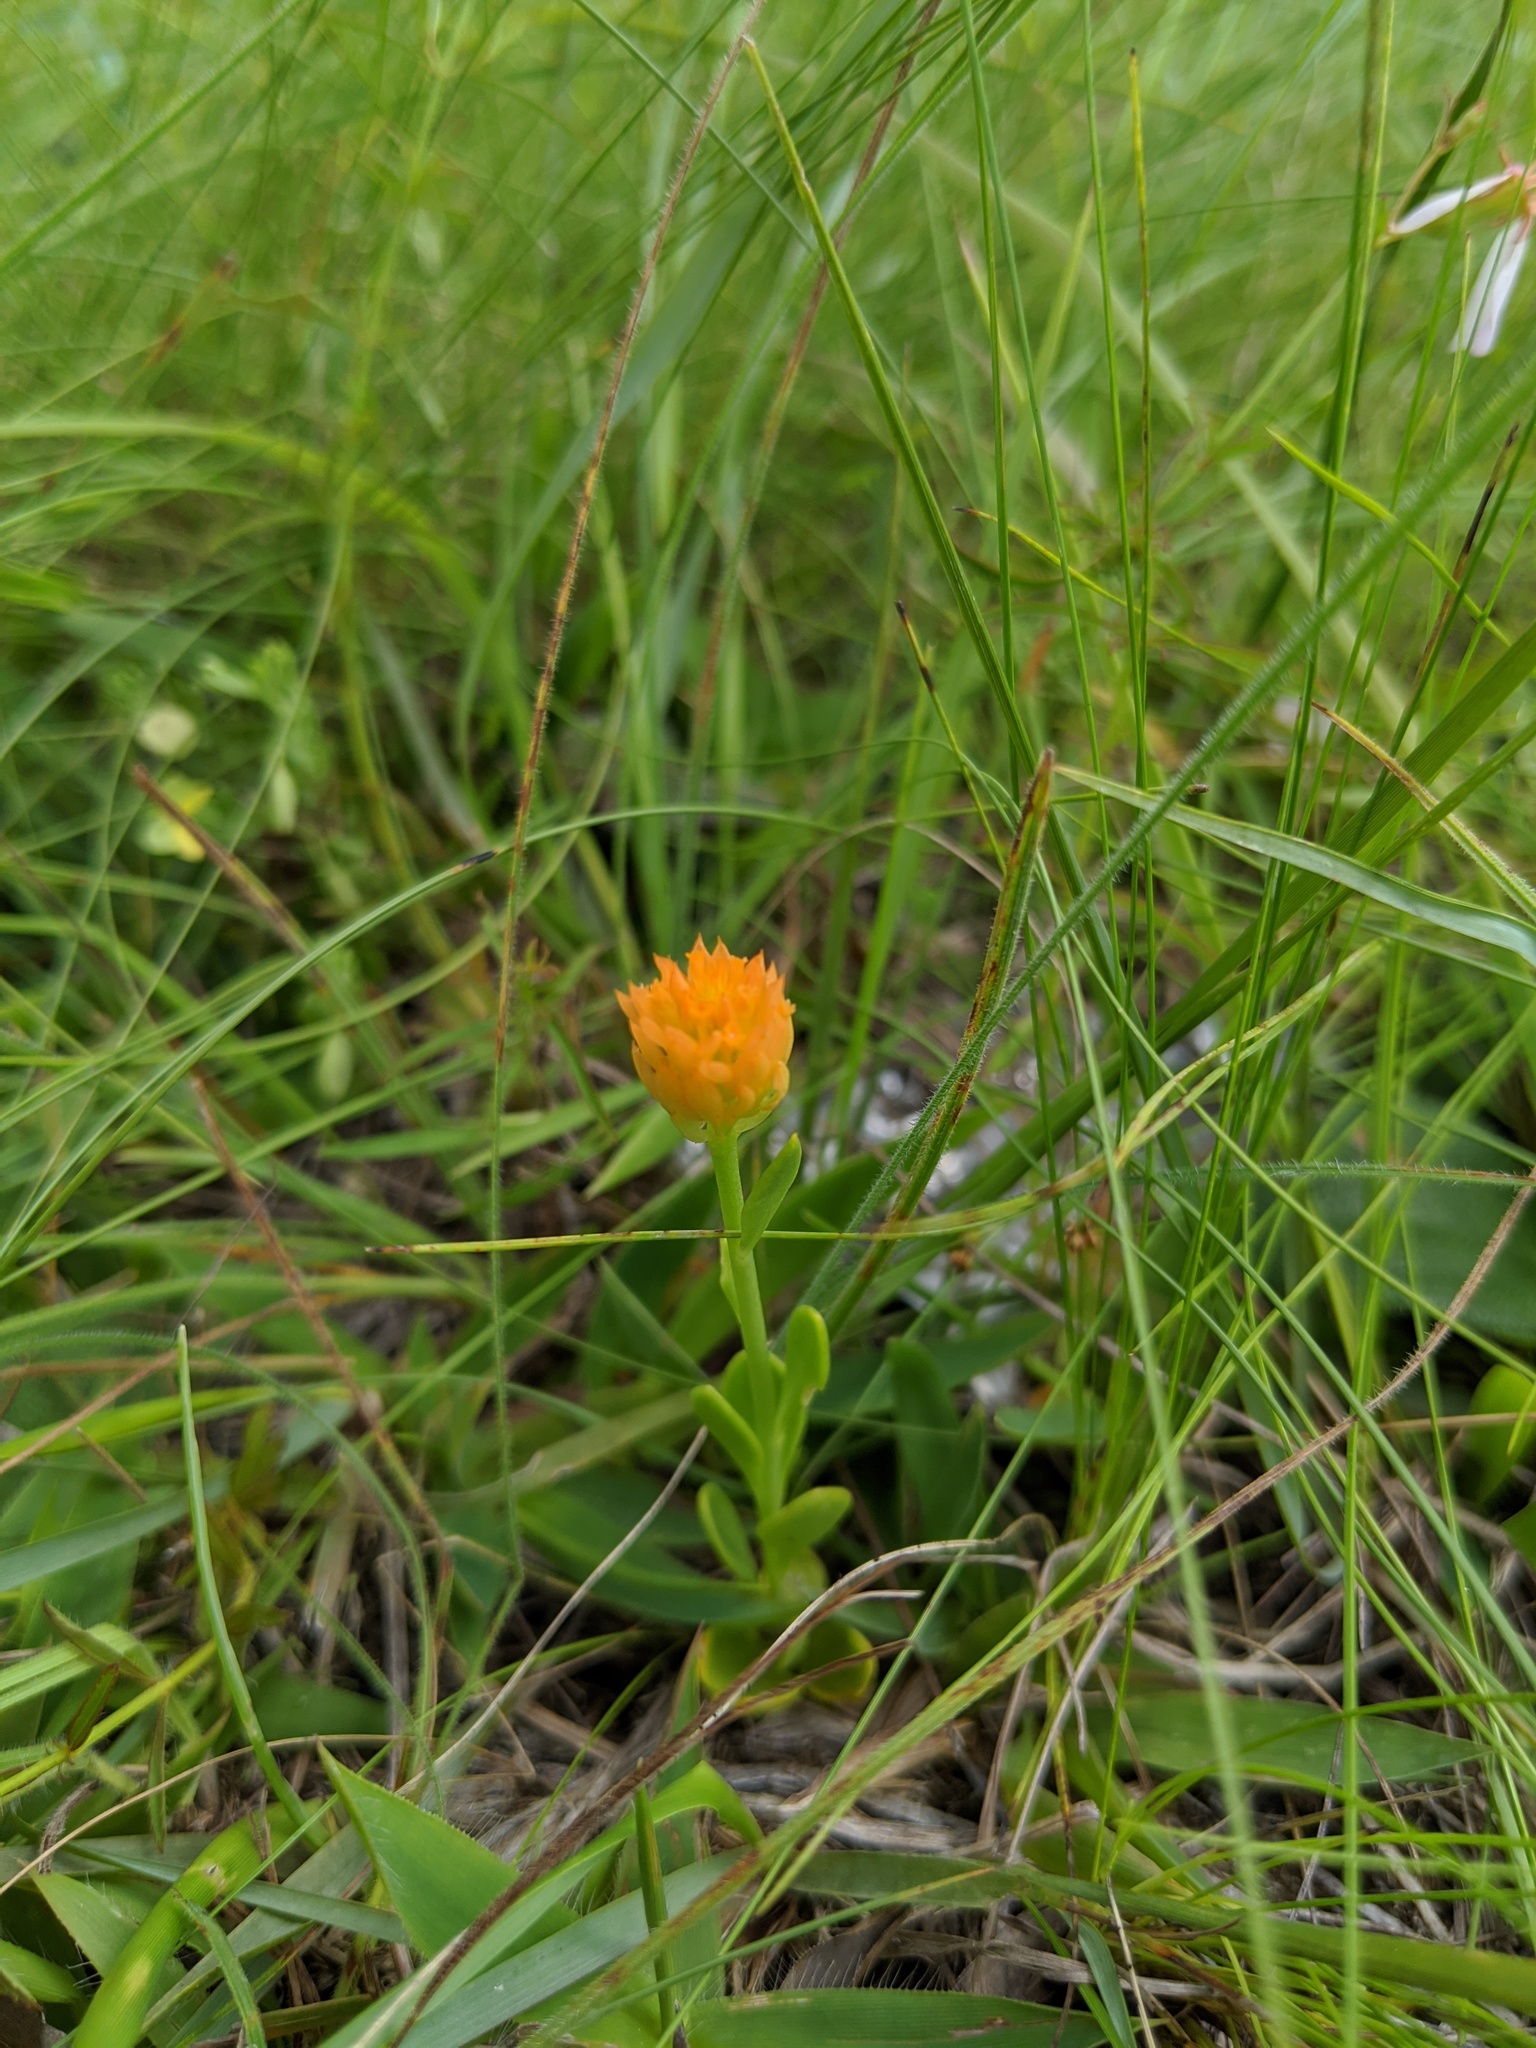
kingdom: Plantae
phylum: Tracheophyta
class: Magnoliopsida
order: Fabales
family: Polygalaceae
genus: Polygala
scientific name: Polygala lutea
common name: Orange milkwort
